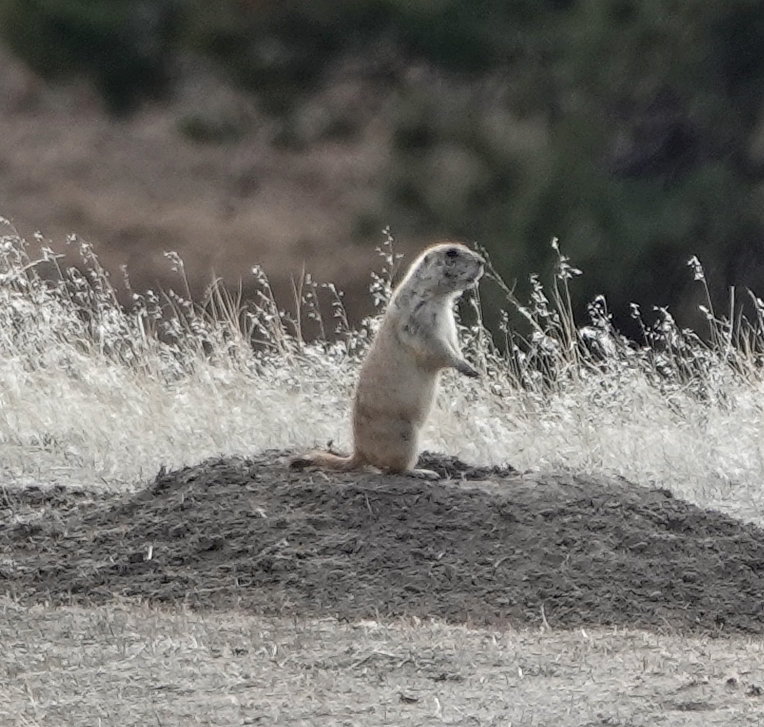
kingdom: Animalia
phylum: Chordata
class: Mammalia
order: Rodentia
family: Sciuridae
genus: Cynomys
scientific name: Cynomys ludovicianus
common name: Black-tailed prairie dog
